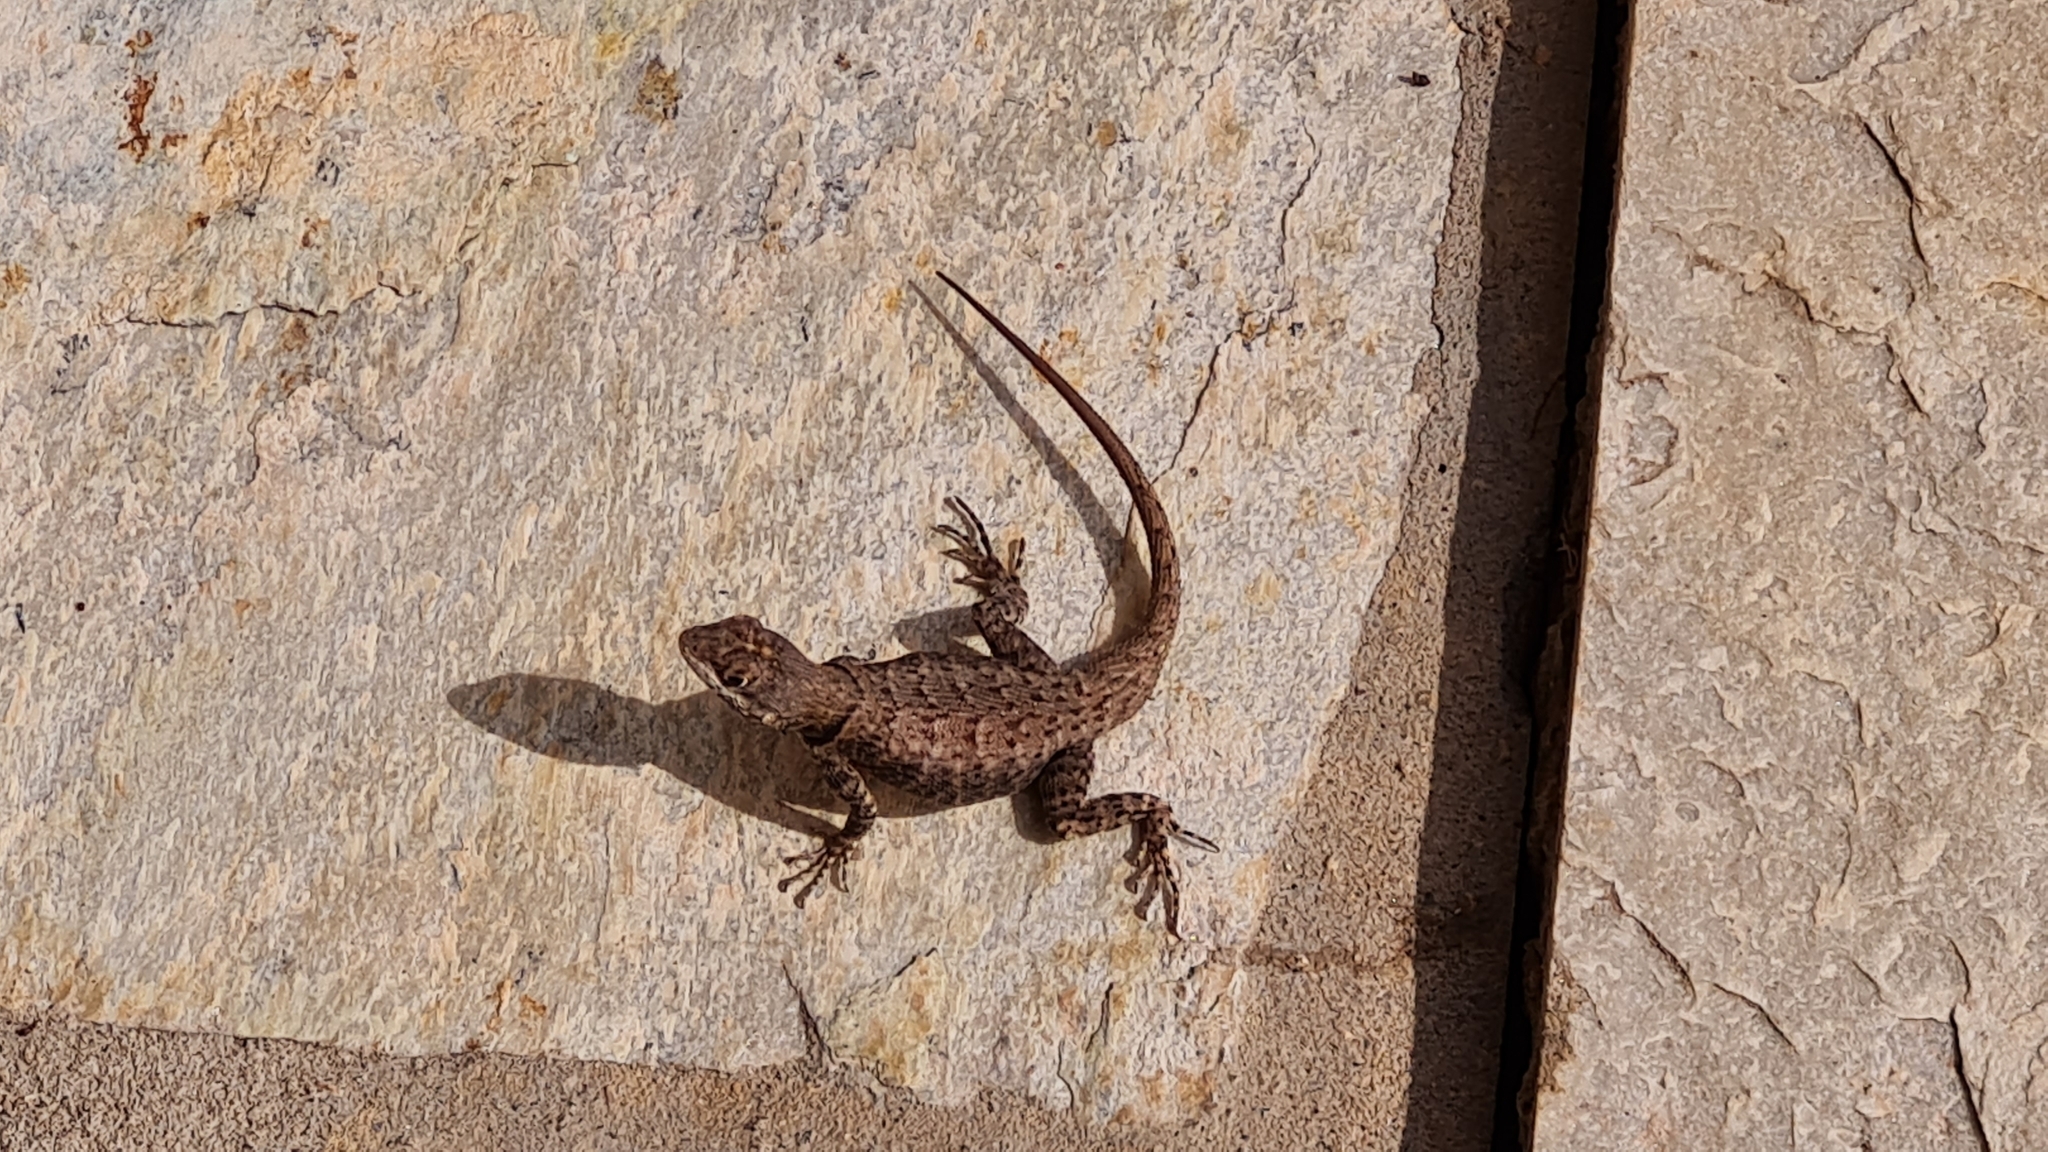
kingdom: Animalia
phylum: Chordata
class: Squamata
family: Tropiduridae
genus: Tropidurus
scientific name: Tropidurus hispidus
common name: Peters' lava lizard
